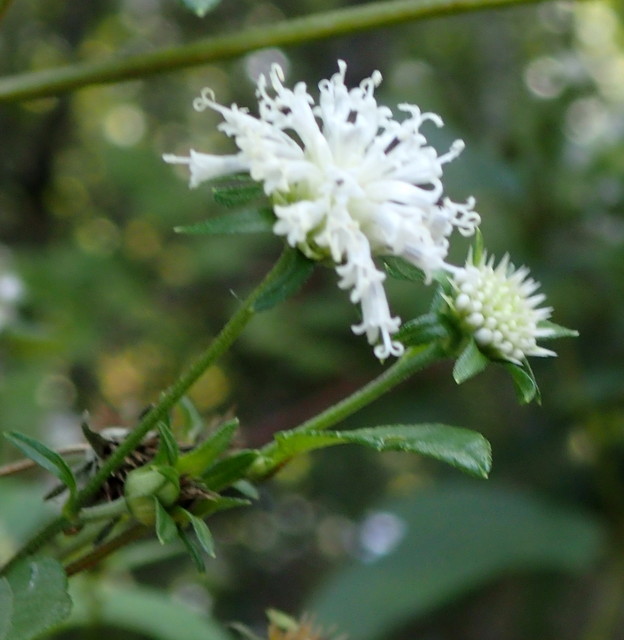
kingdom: Plantae
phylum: Tracheophyta
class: Magnoliopsida
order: Asterales
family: Asteraceae
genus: Melanthera
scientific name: Melanthera nivea
